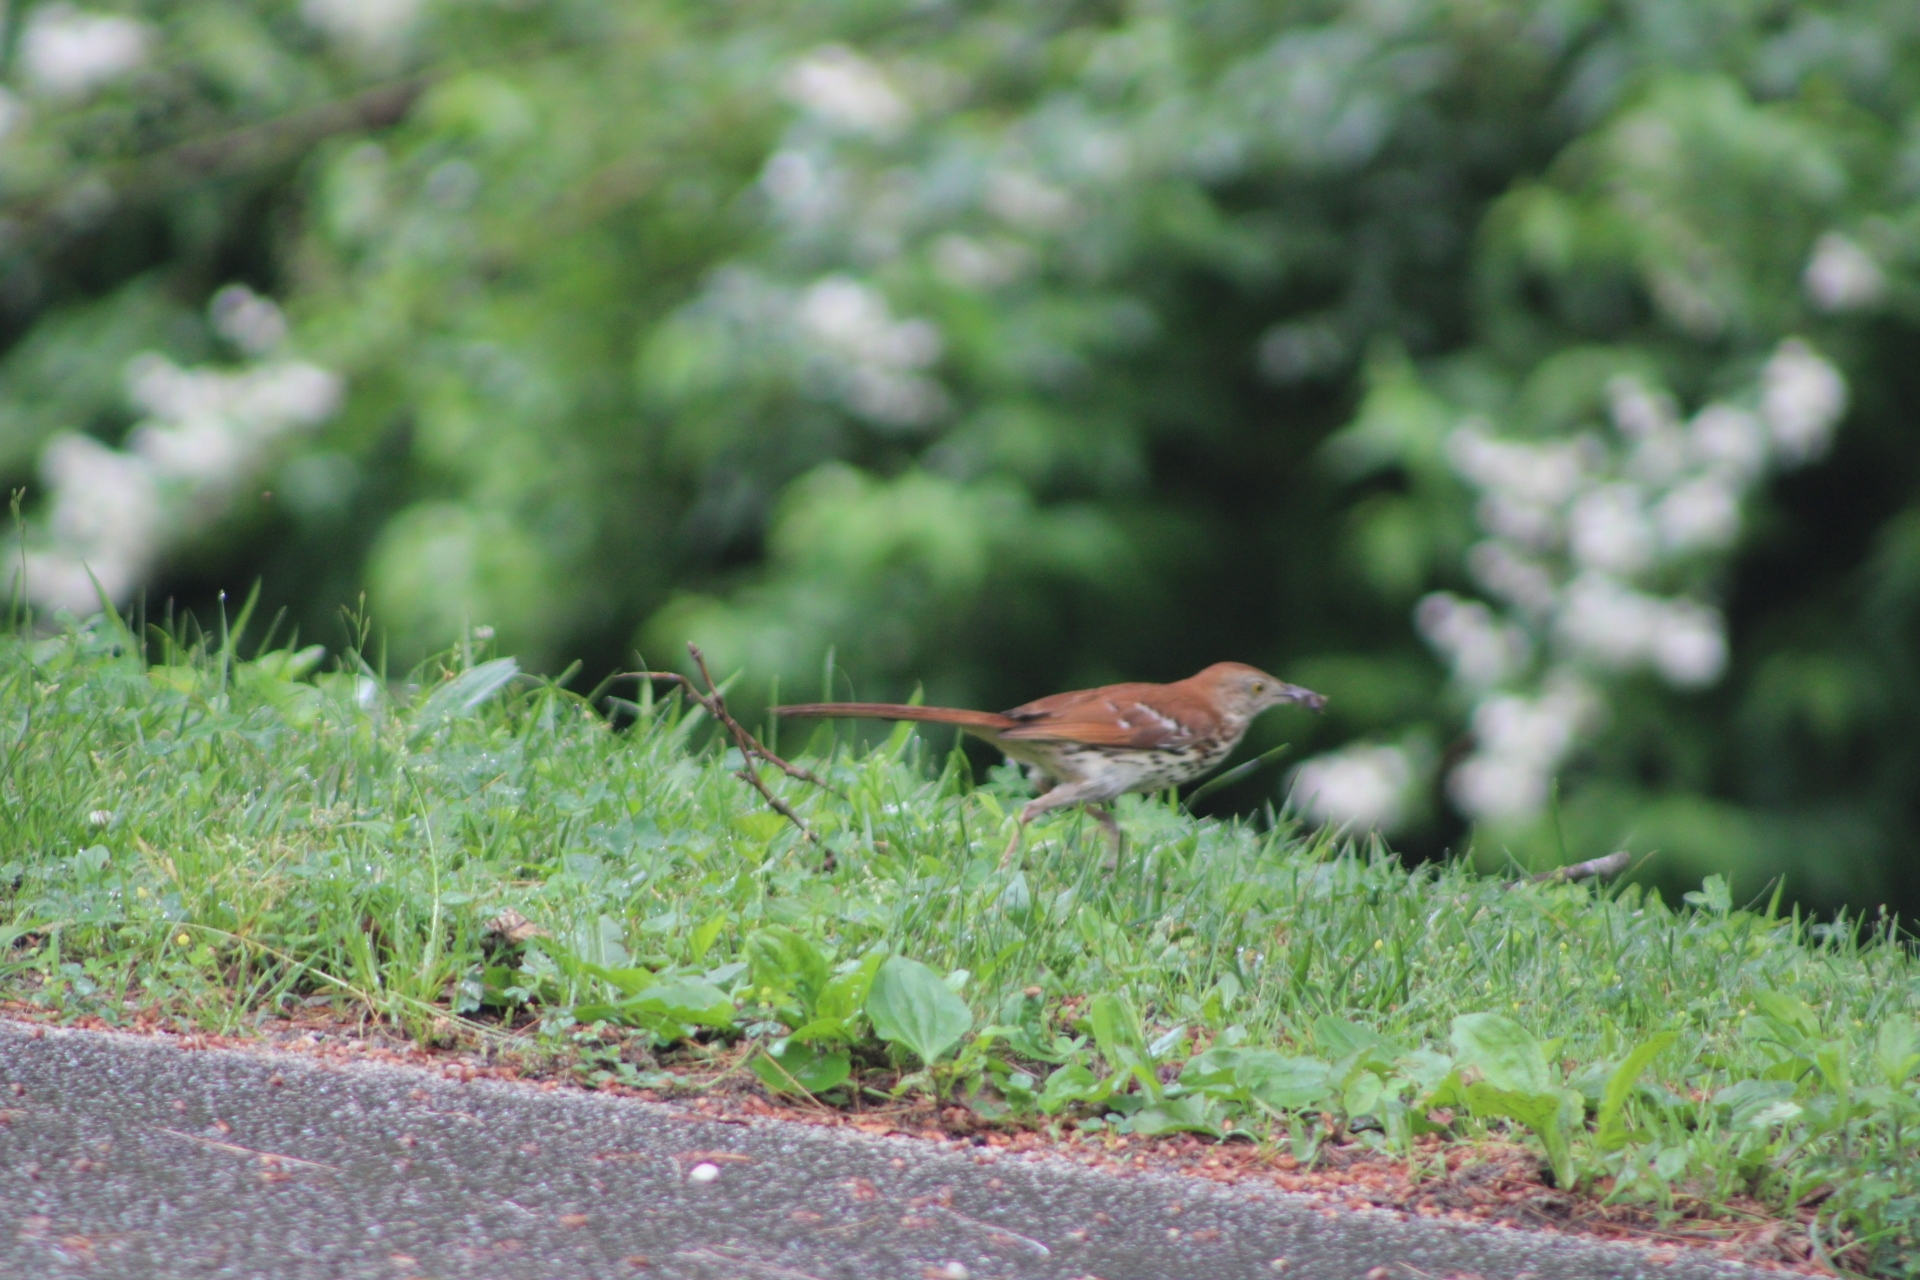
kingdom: Animalia
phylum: Chordata
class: Aves
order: Passeriformes
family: Mimidae
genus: Toxostoma
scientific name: Toxostoma rufum
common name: Brown thrasher
